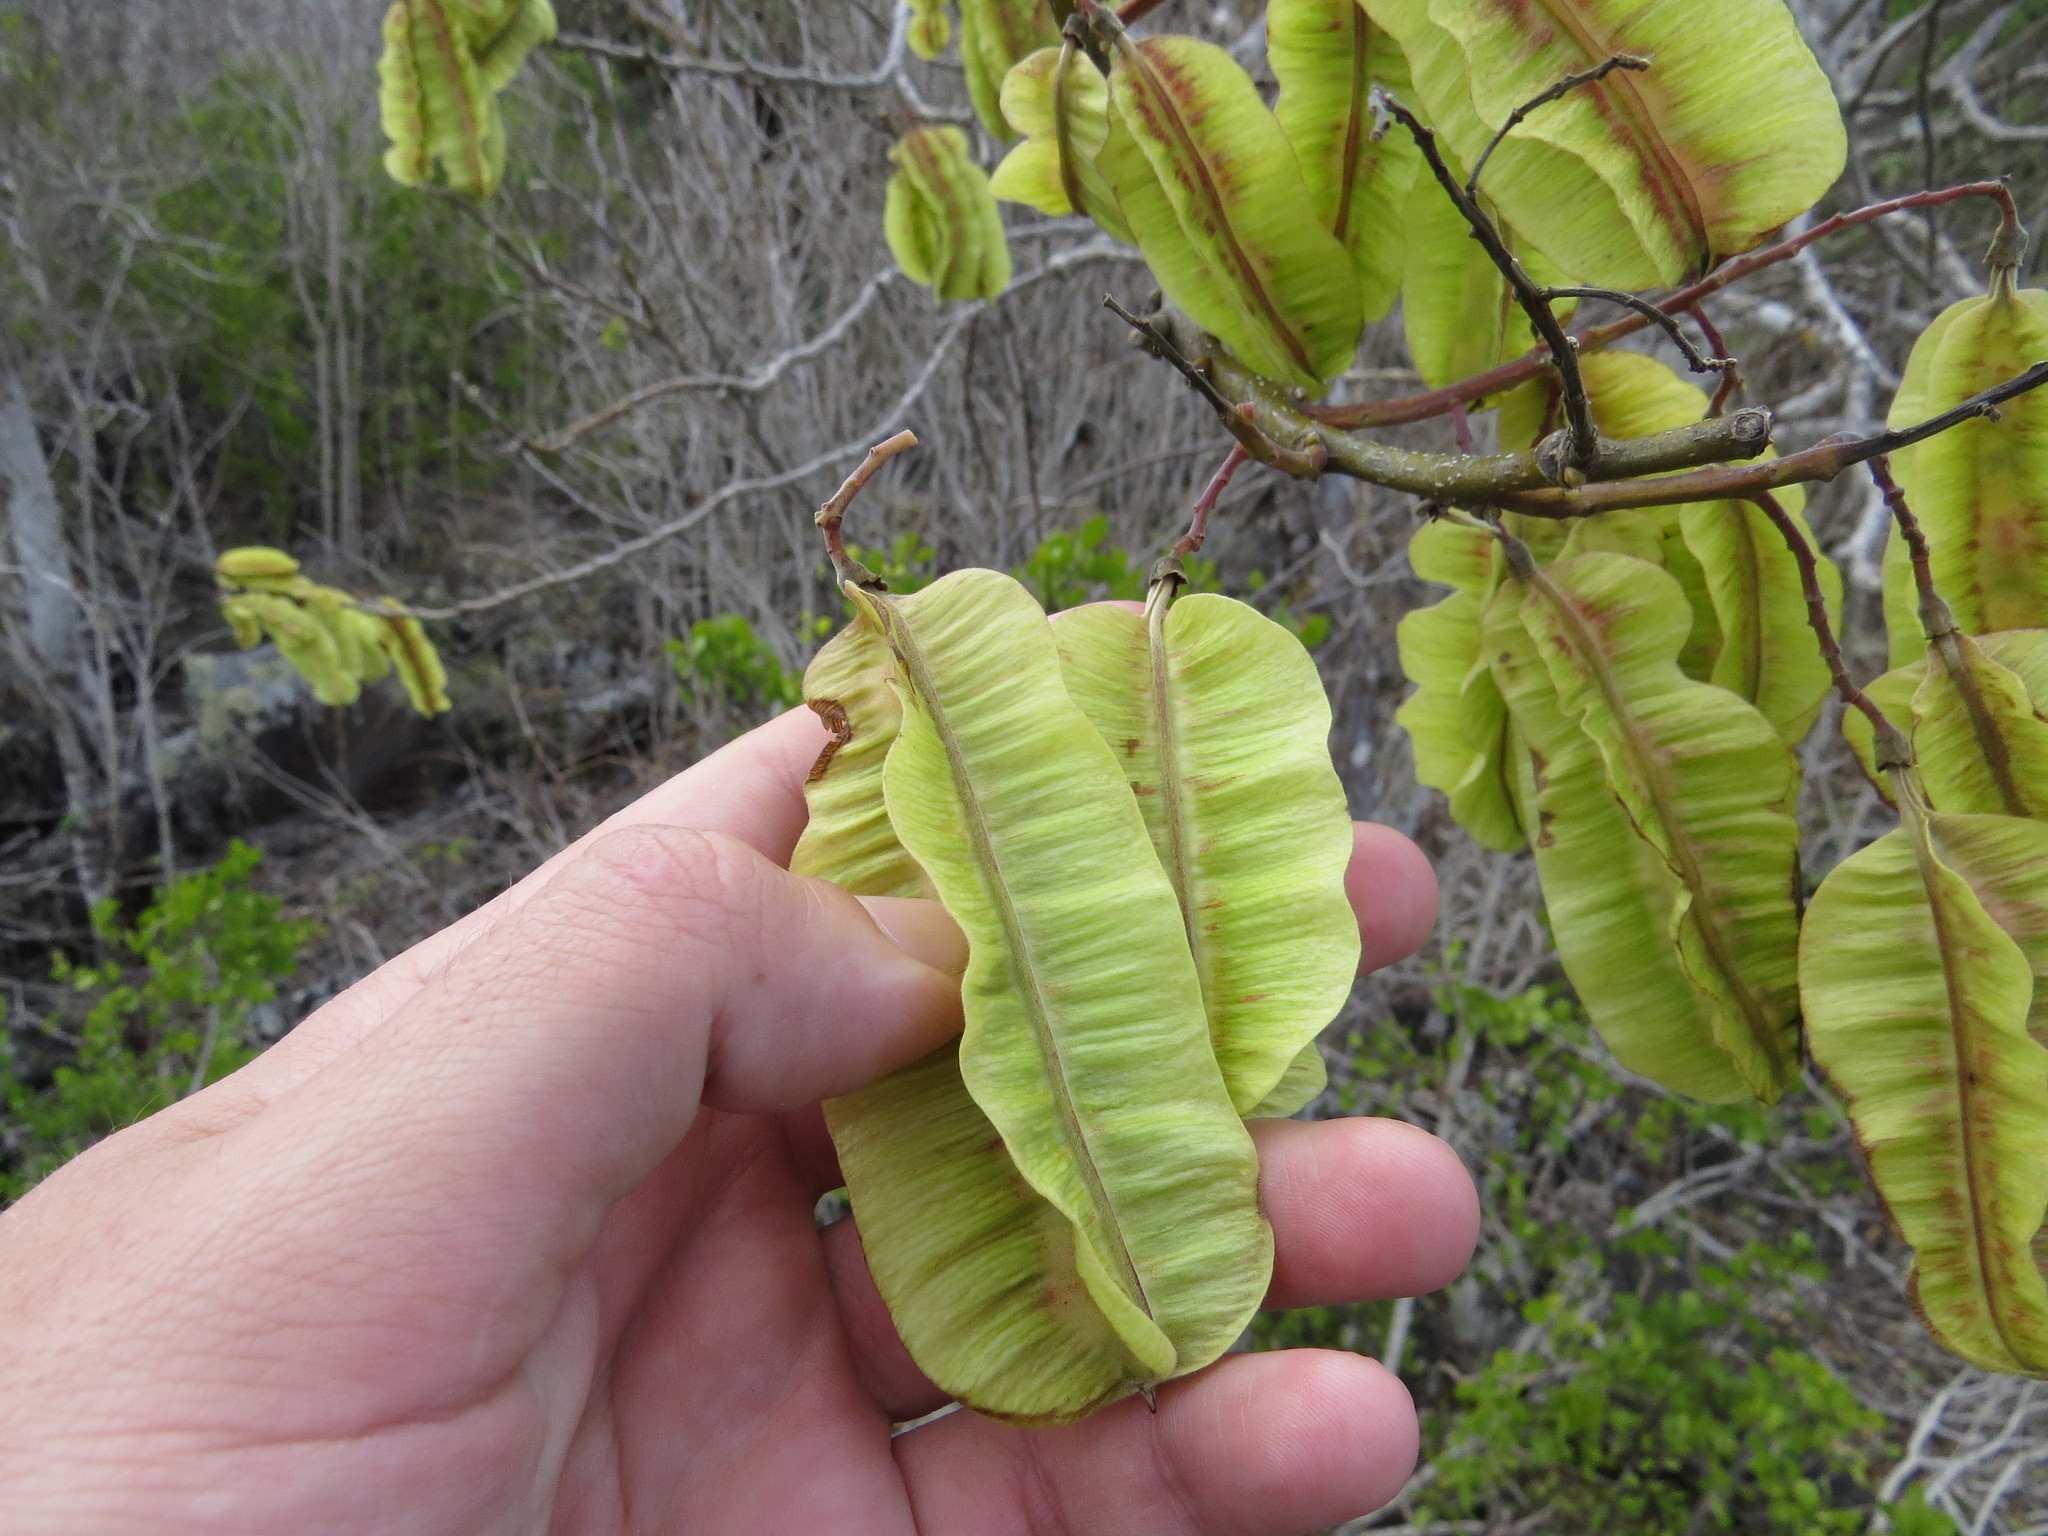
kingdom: Plantae
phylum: Tracheophyta
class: Magnoliopsida
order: Fabales
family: Fabaceae
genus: Piscidia
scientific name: Piscidia carthagenensis
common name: Stinkwood
